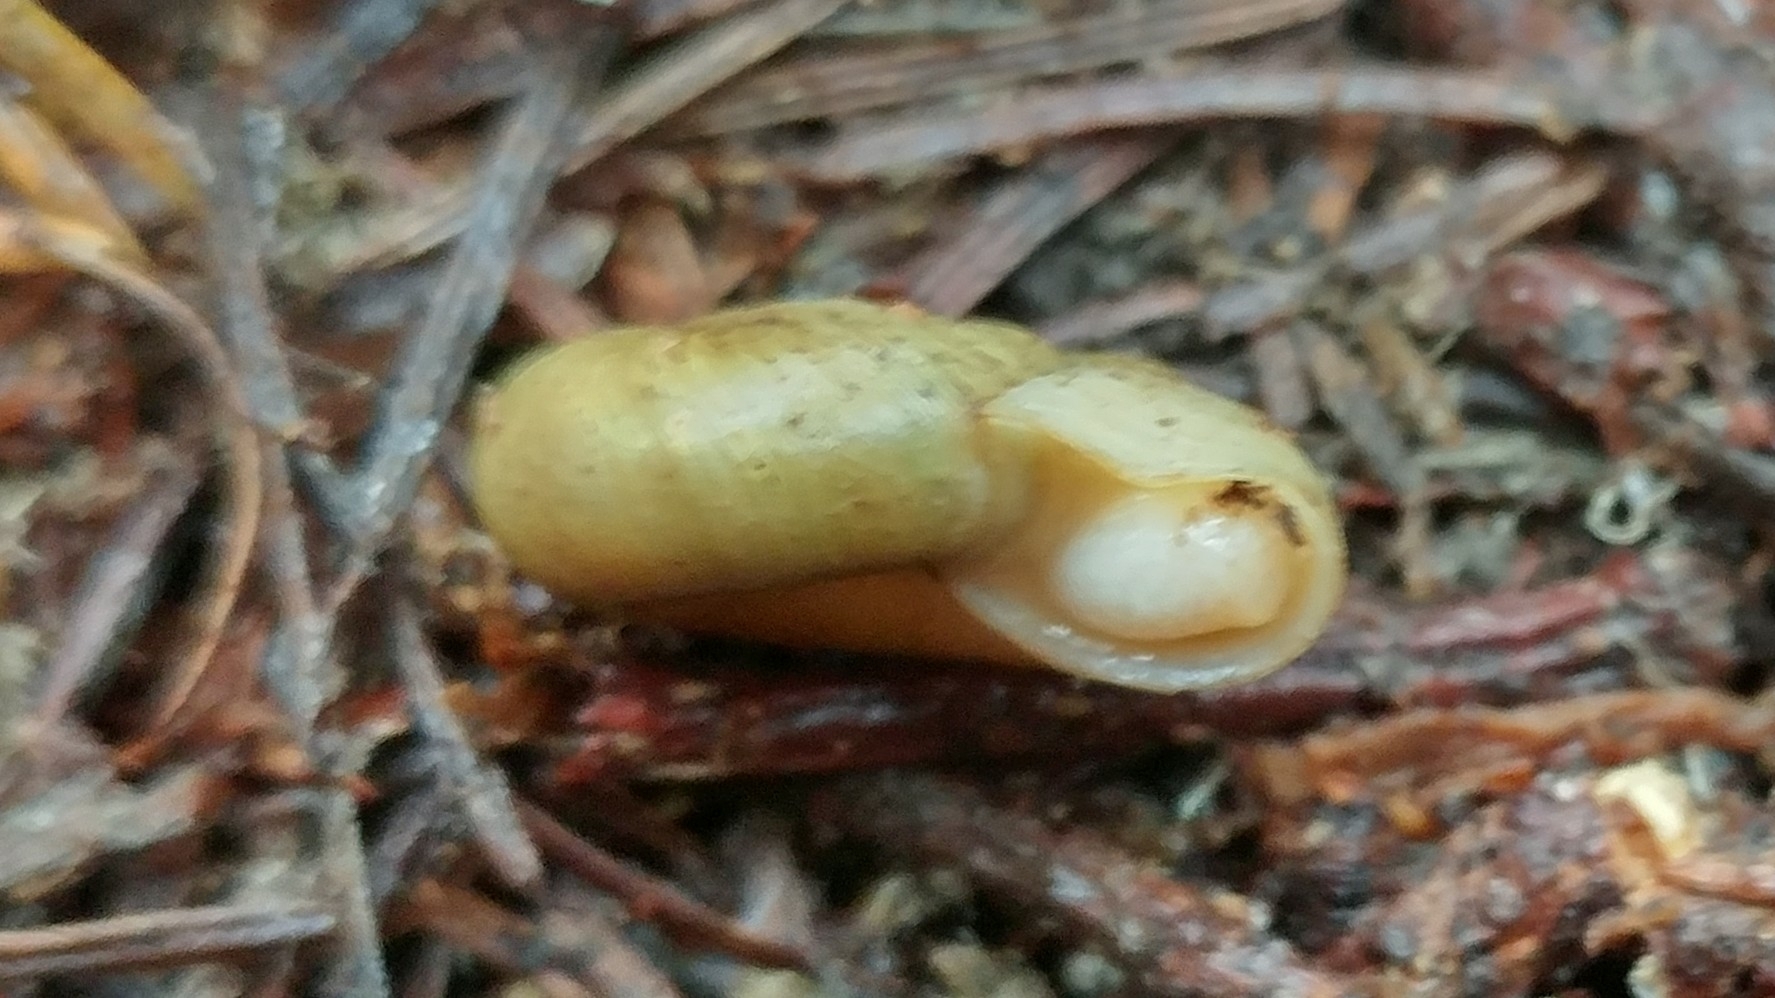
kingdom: Animalia
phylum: Mollusca
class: Gastropoda
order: Stylommatophora
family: Haplotrematidae
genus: Ancotrema
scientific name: Ancotrema sportella
